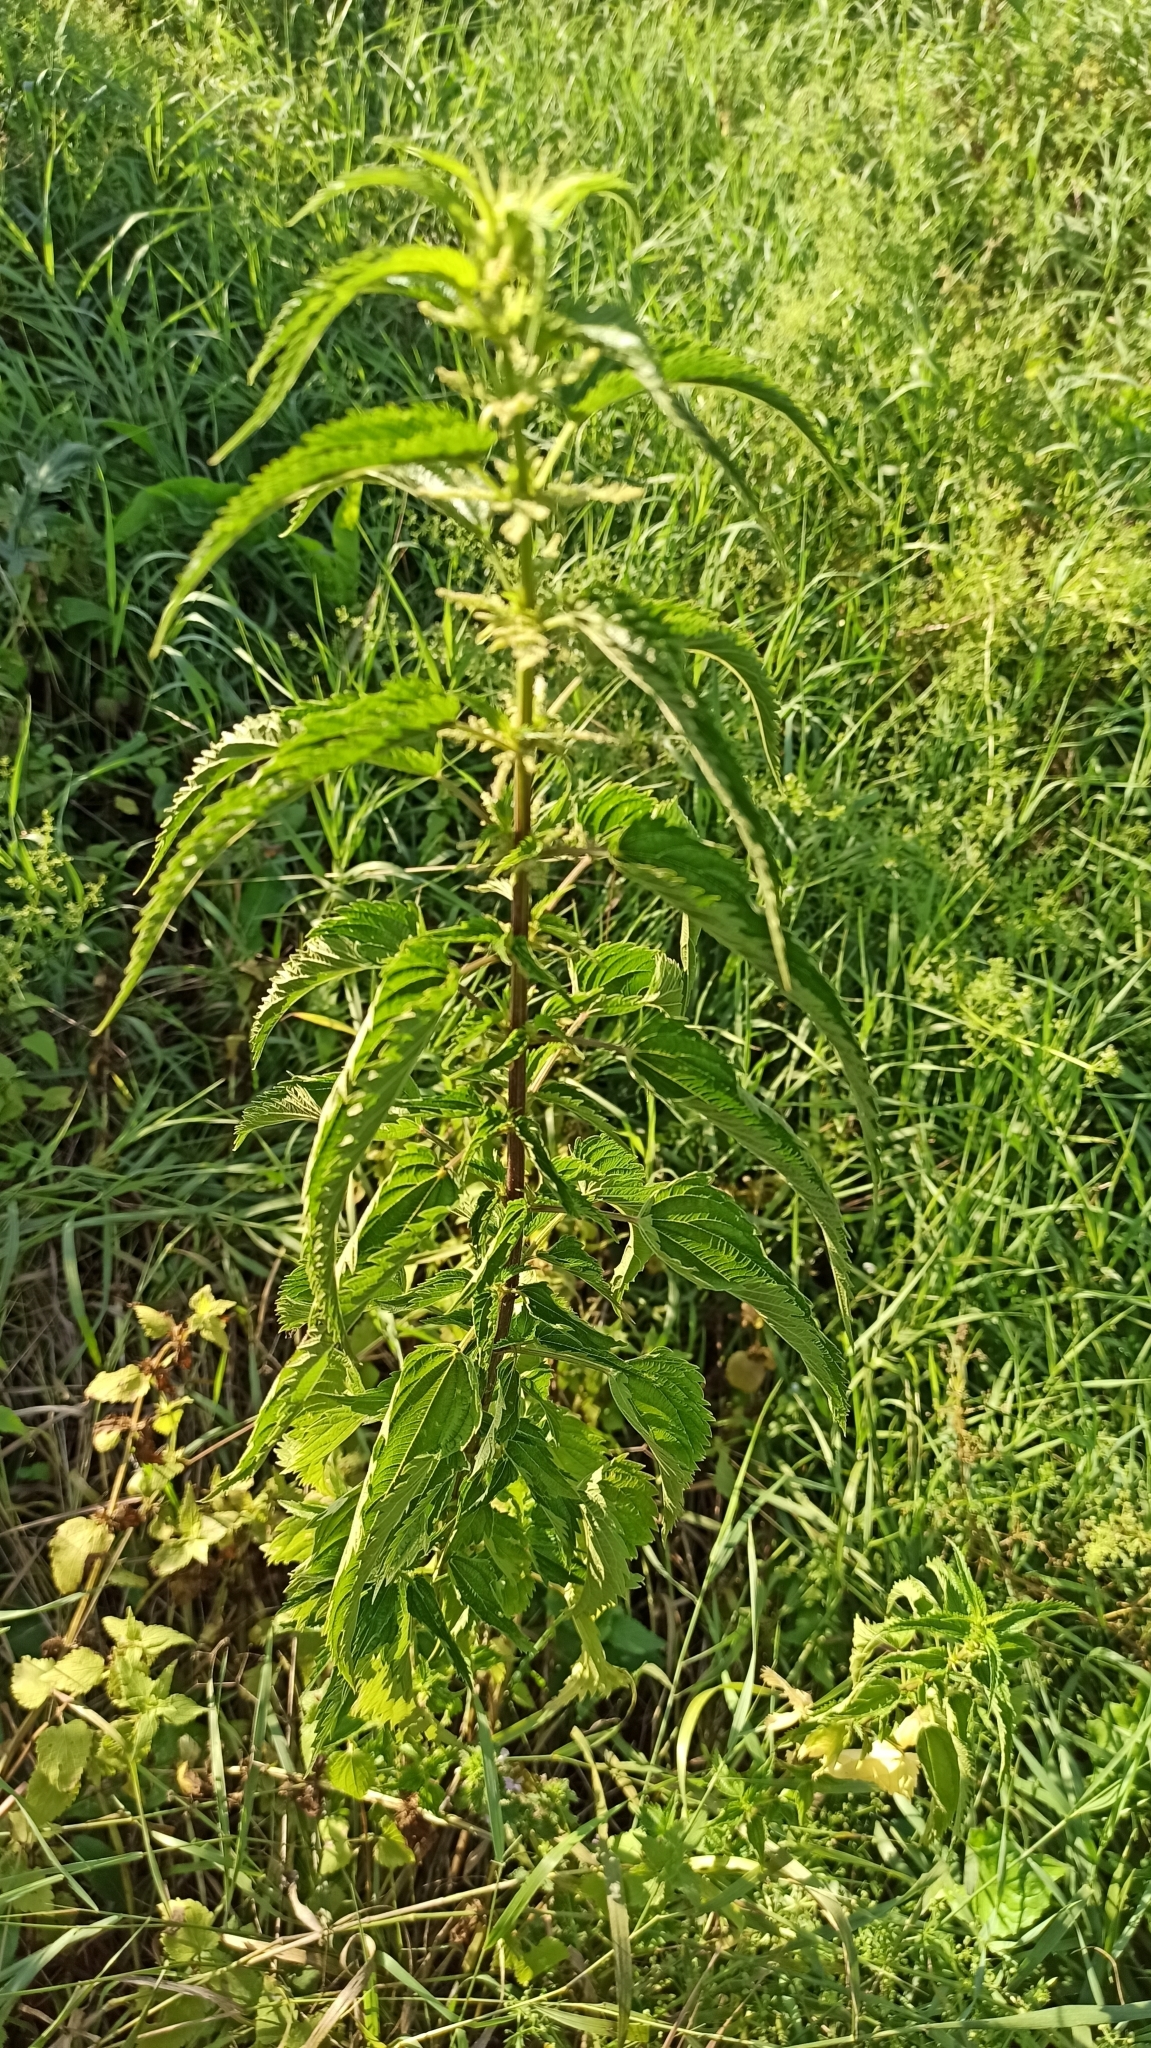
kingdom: Plantae
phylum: Tracheophyta
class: Magnoliopsida
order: Rosales
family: Urticaceae
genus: Urtica
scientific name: Urtica dioica
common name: Common nettle
